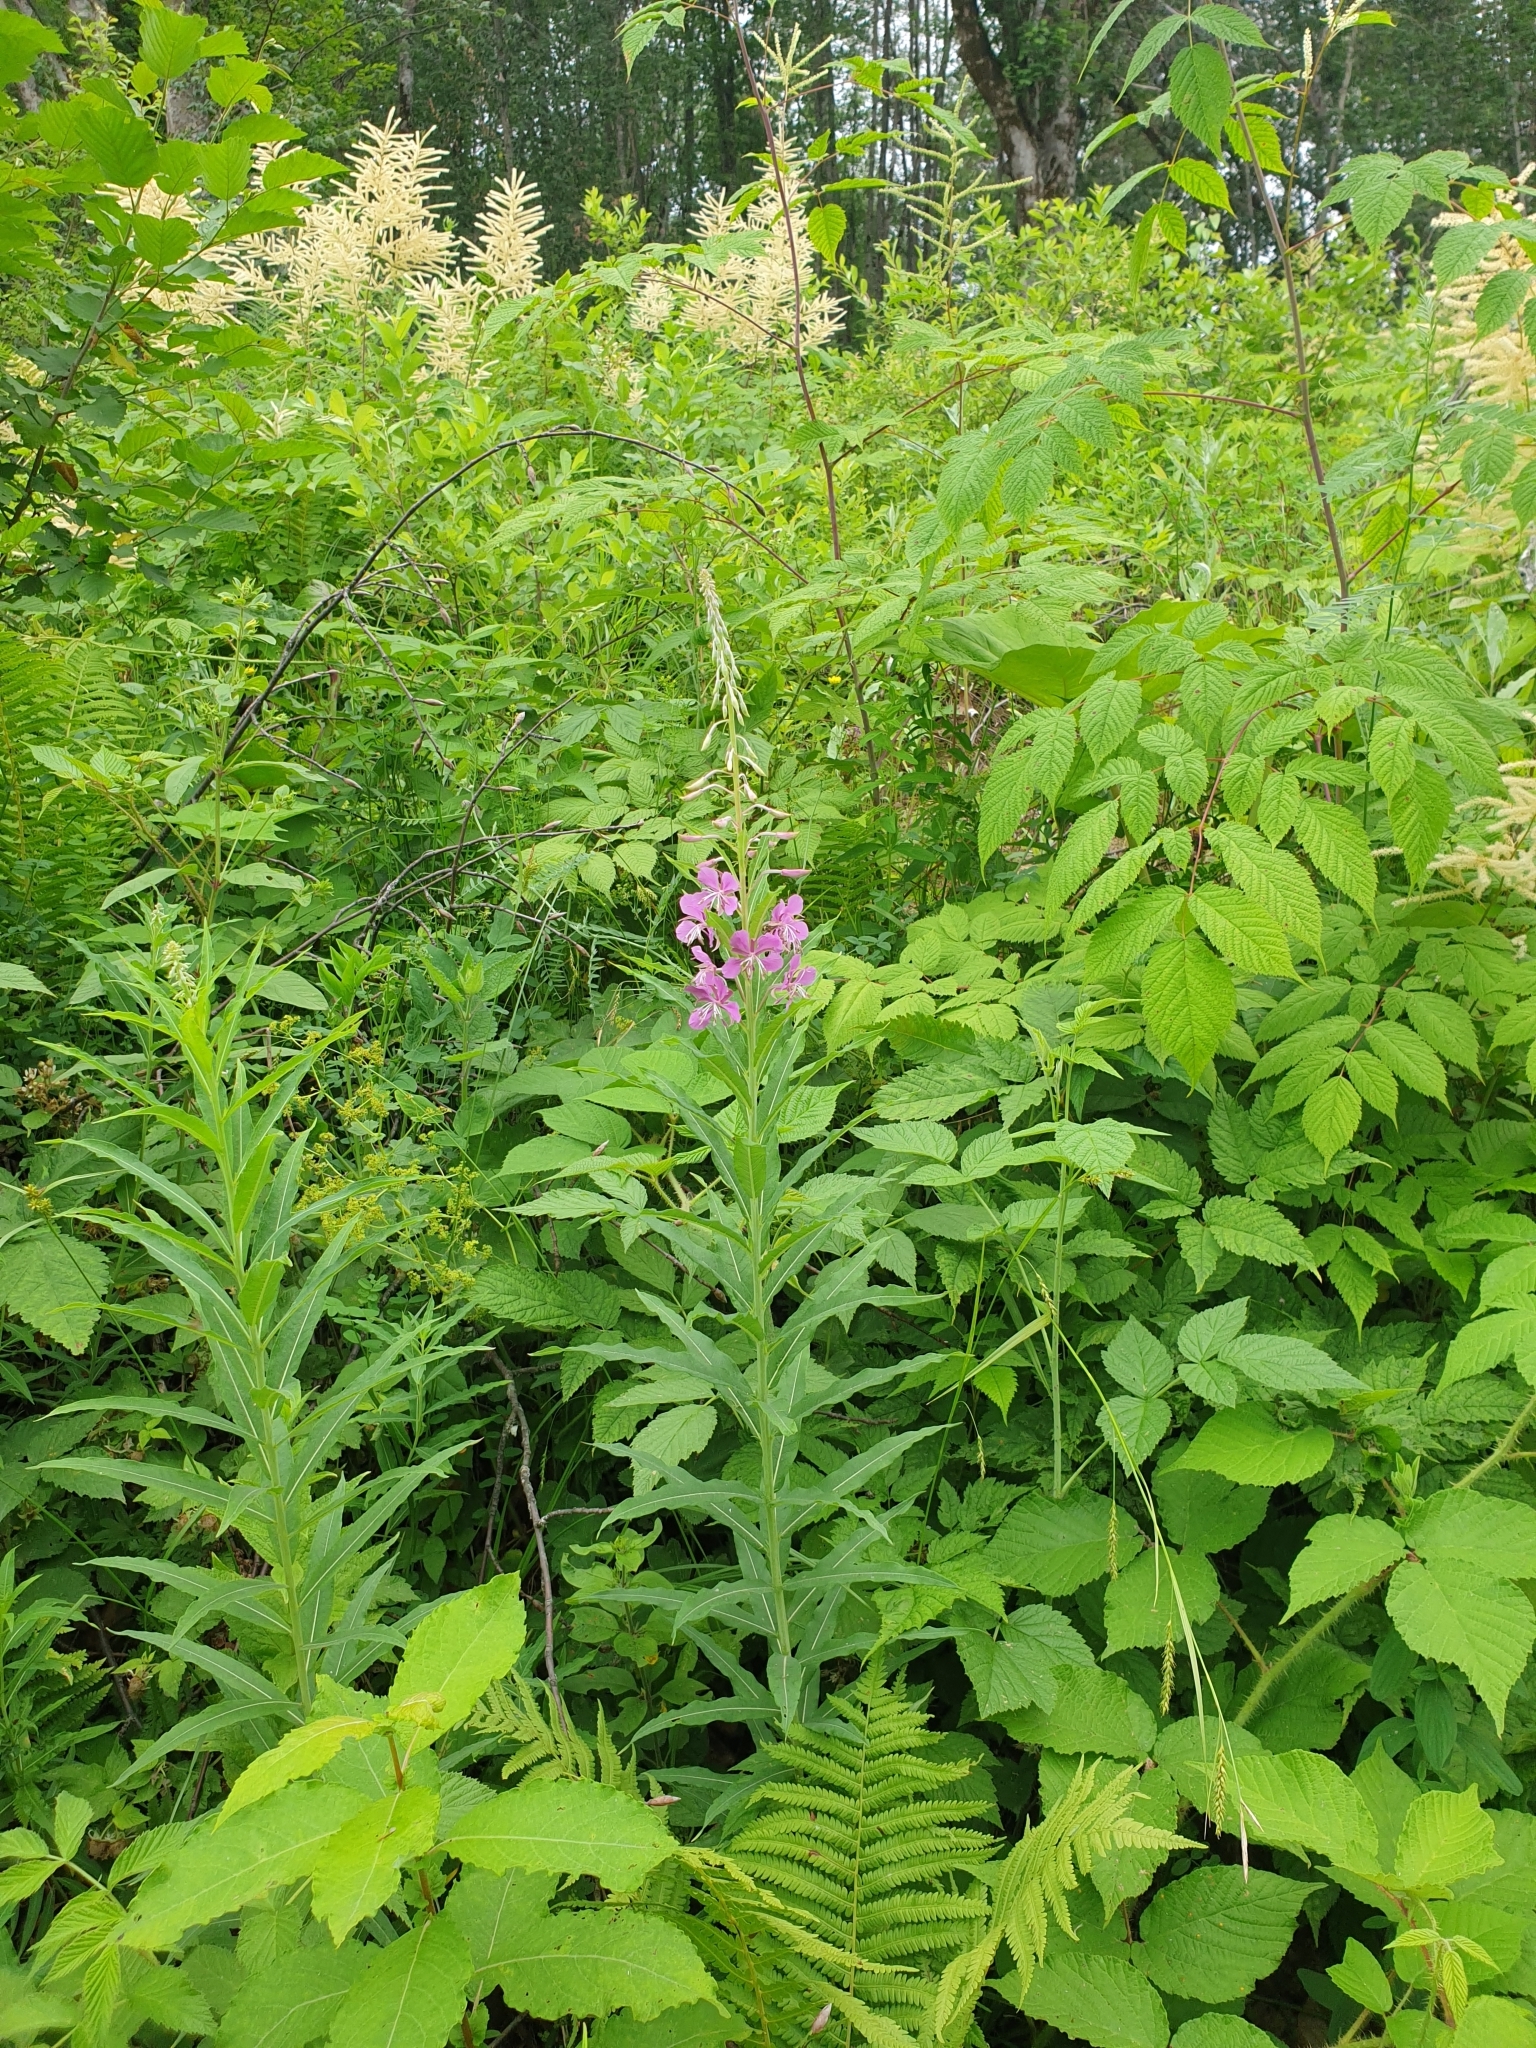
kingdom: Plantae
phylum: Tracheophyta
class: Magnoliopsida
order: Myrtales
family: Onagraceae
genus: Chamaenerion
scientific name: Chamaenerion angustifolium
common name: Fireweed
